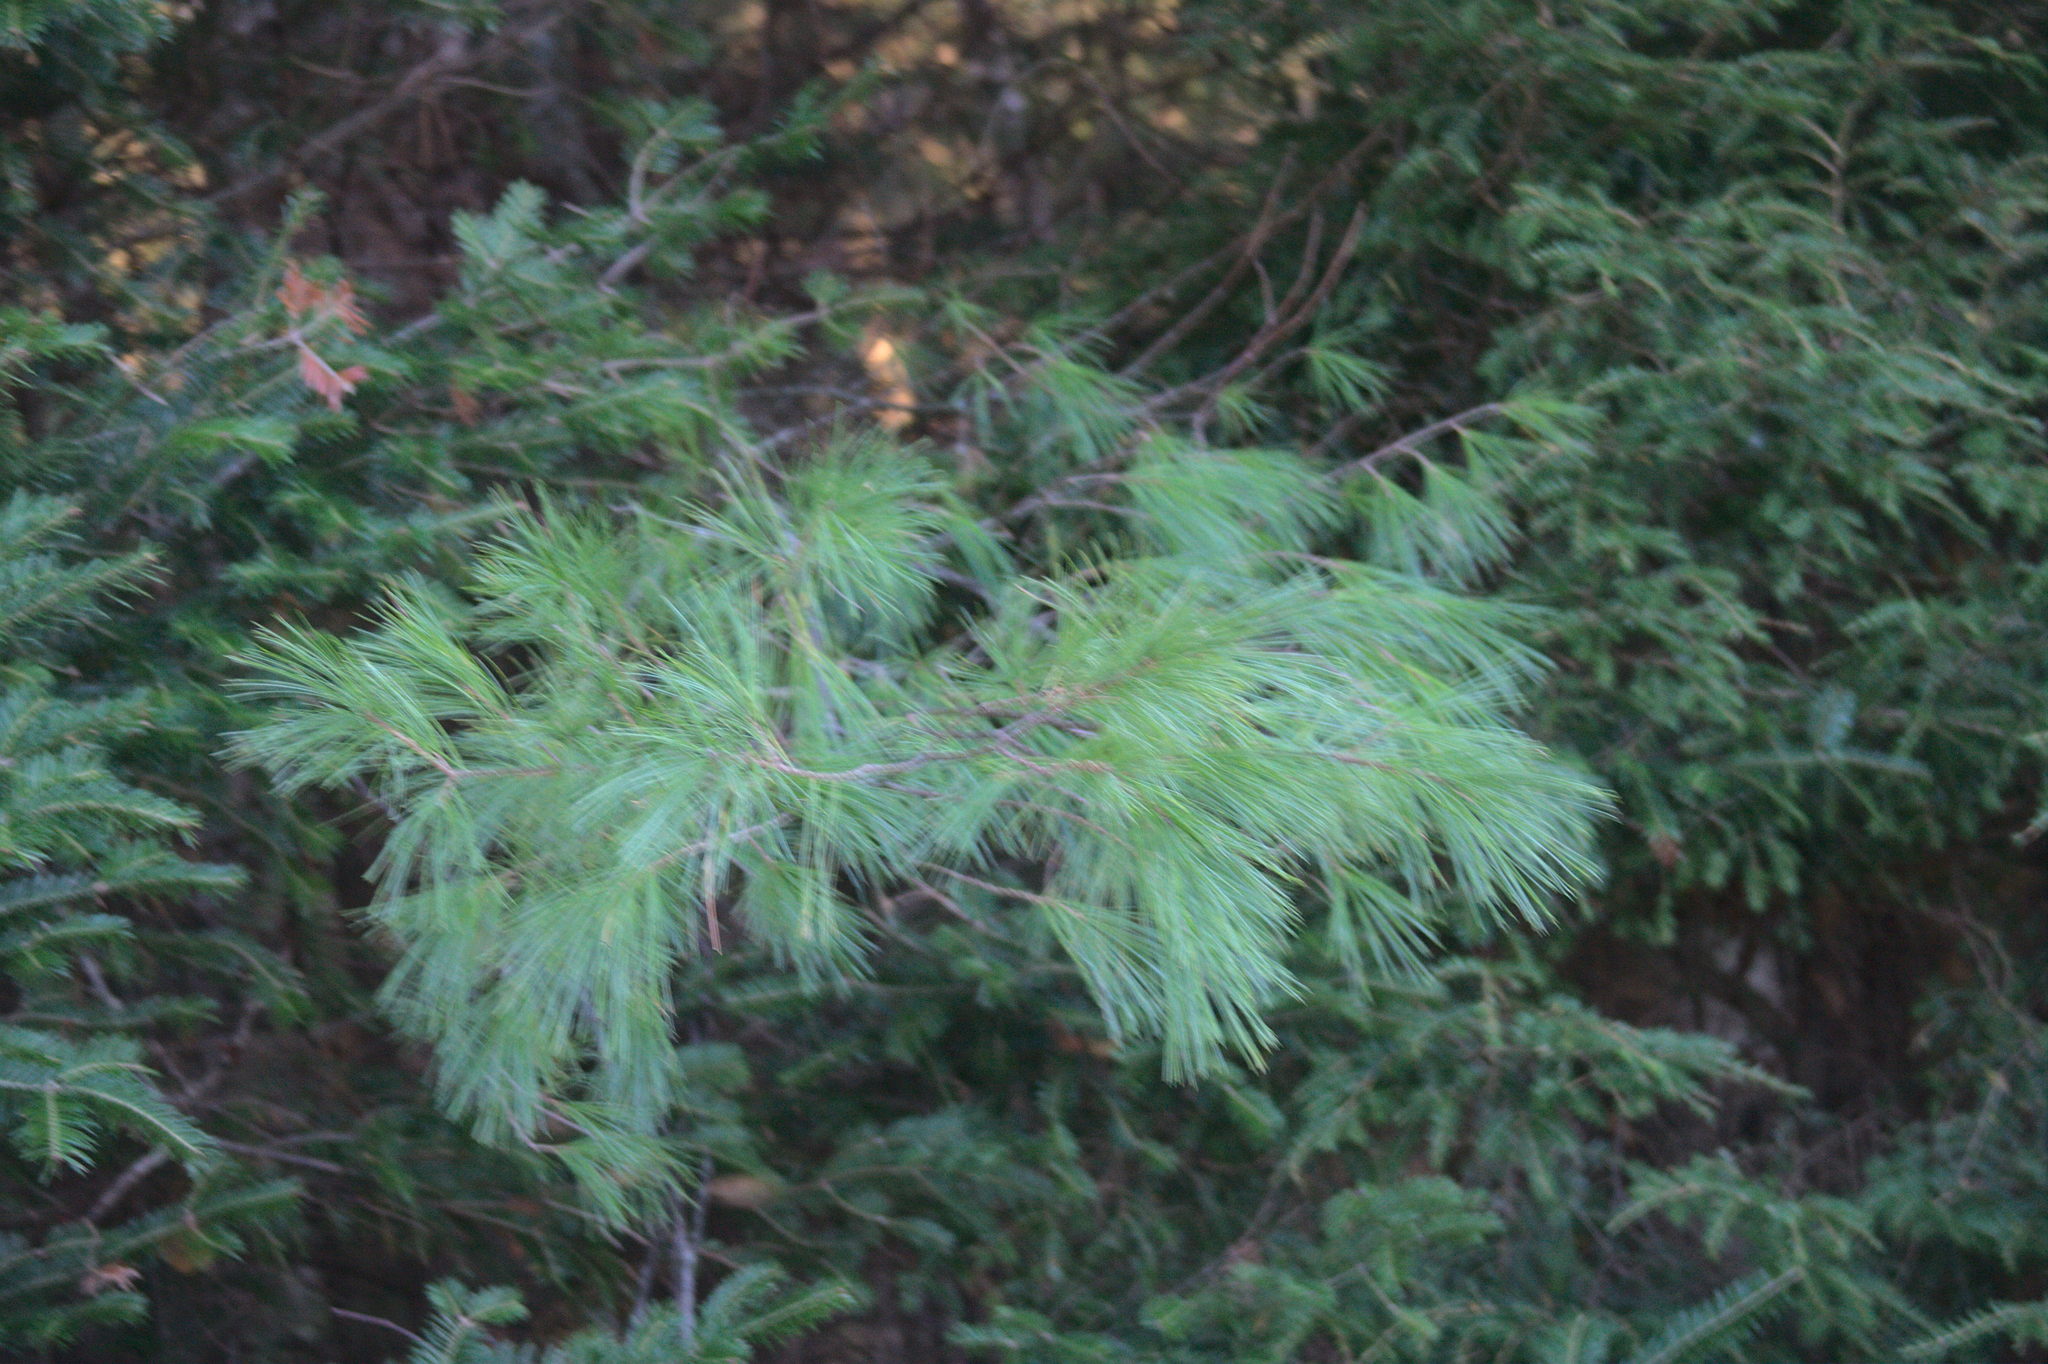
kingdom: Plantae
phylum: Tracheophyta
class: Pinopsida
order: Pinales
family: Pinaceae
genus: Pinus
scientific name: Pinus strobus
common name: Weymouth pine
